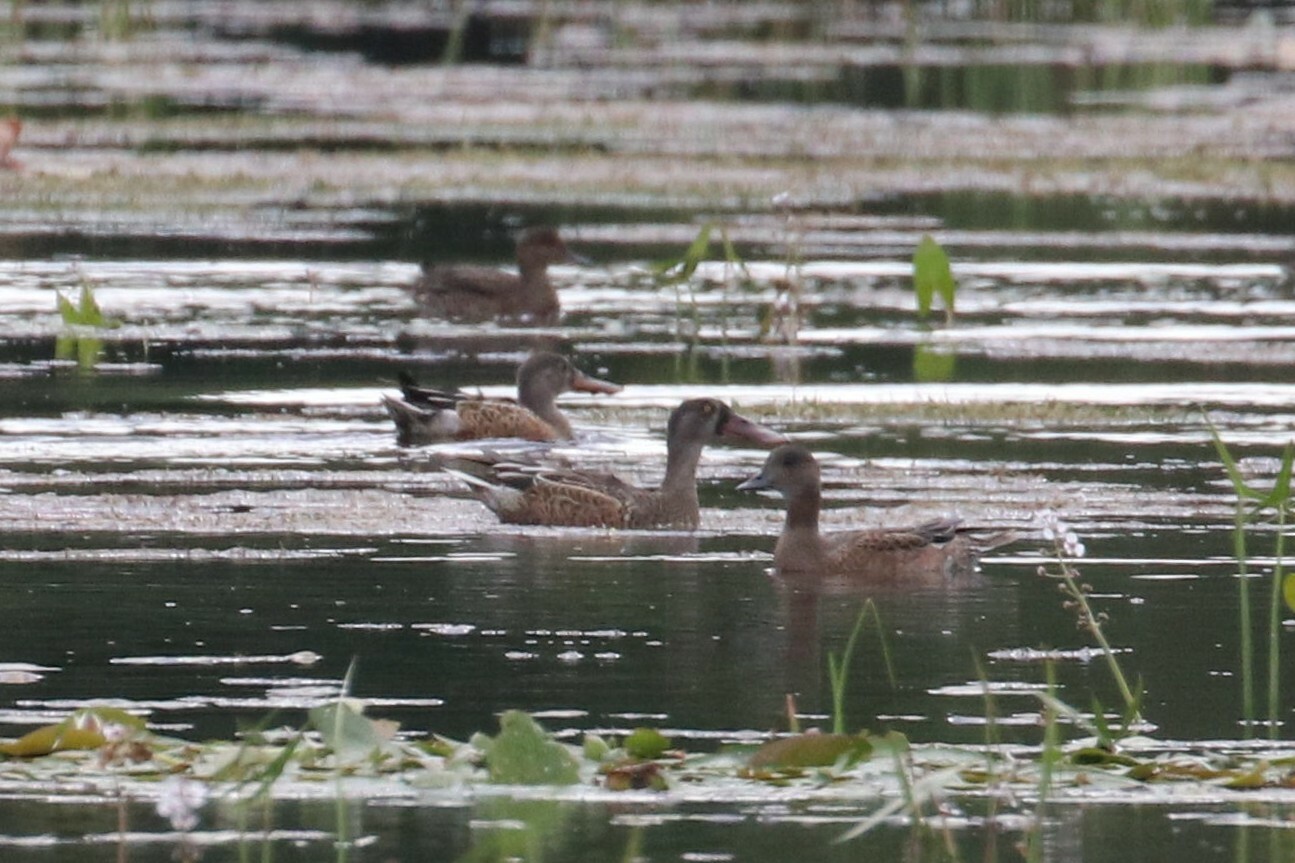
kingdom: Animalia
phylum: Chordata
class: Aves
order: Anseriformes
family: Anatidae
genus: Mareca
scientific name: Mareca penelope
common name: Eurasian wigeon
